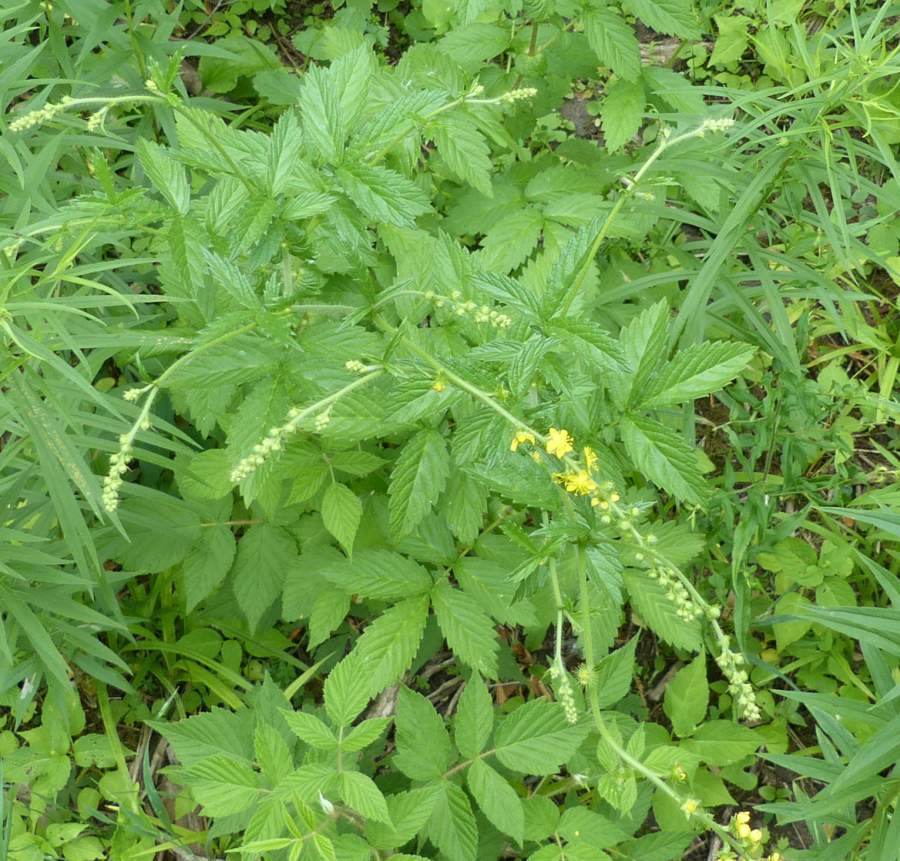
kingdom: Plantae
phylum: Tracheophyta
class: Magnoliopsida
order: Rosales
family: Rosaceae
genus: Agrimonia
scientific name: Agrimonia gryposepala
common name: Common agrimony
